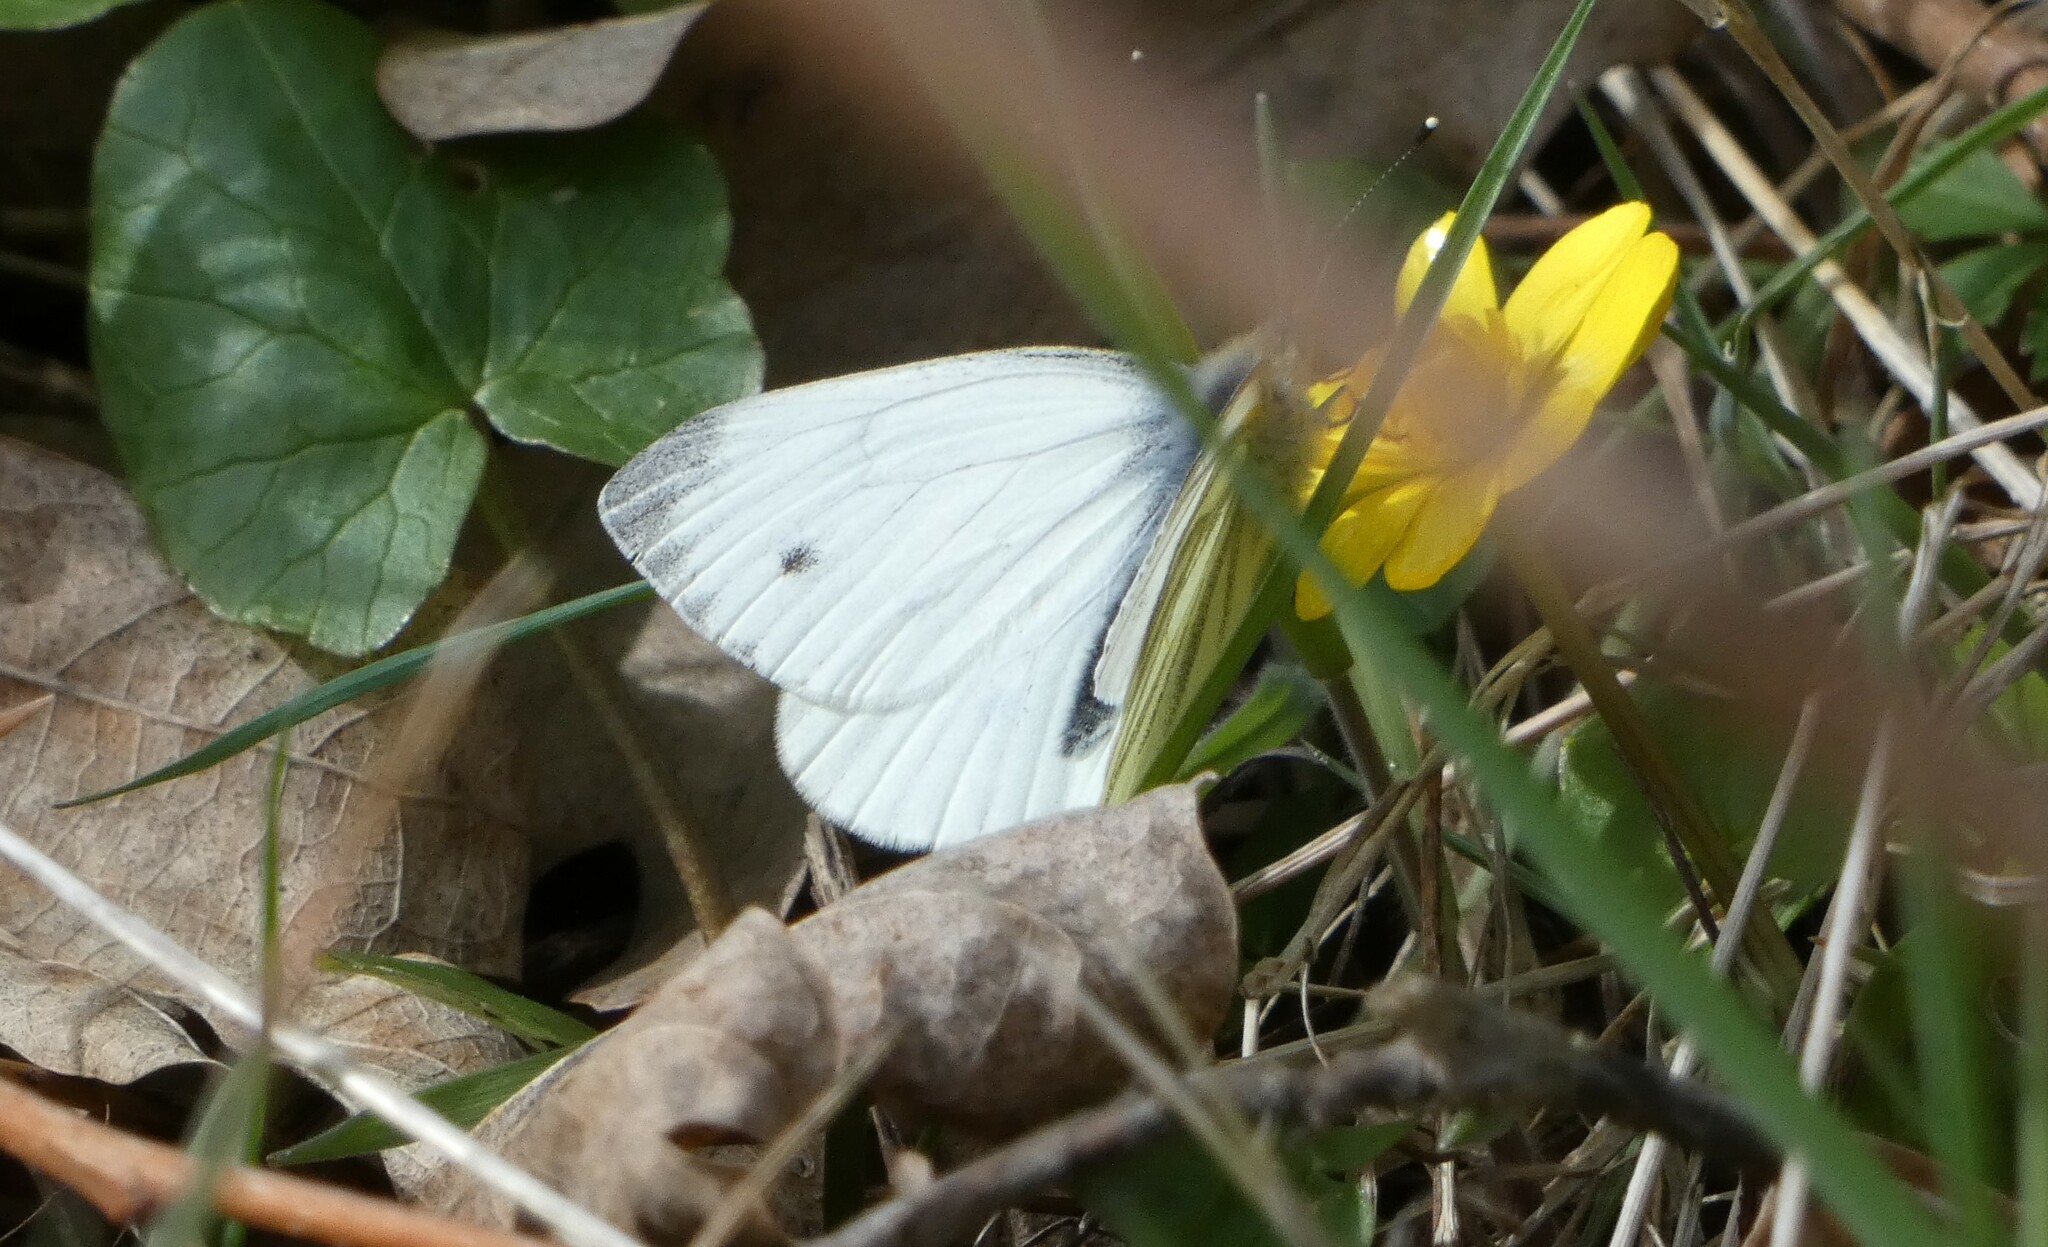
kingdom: Animalia
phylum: Arthropoda
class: Insecta
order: Lepidoptera
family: Pieridae
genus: Pieris
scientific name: Pieris napi
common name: Green-veined white
